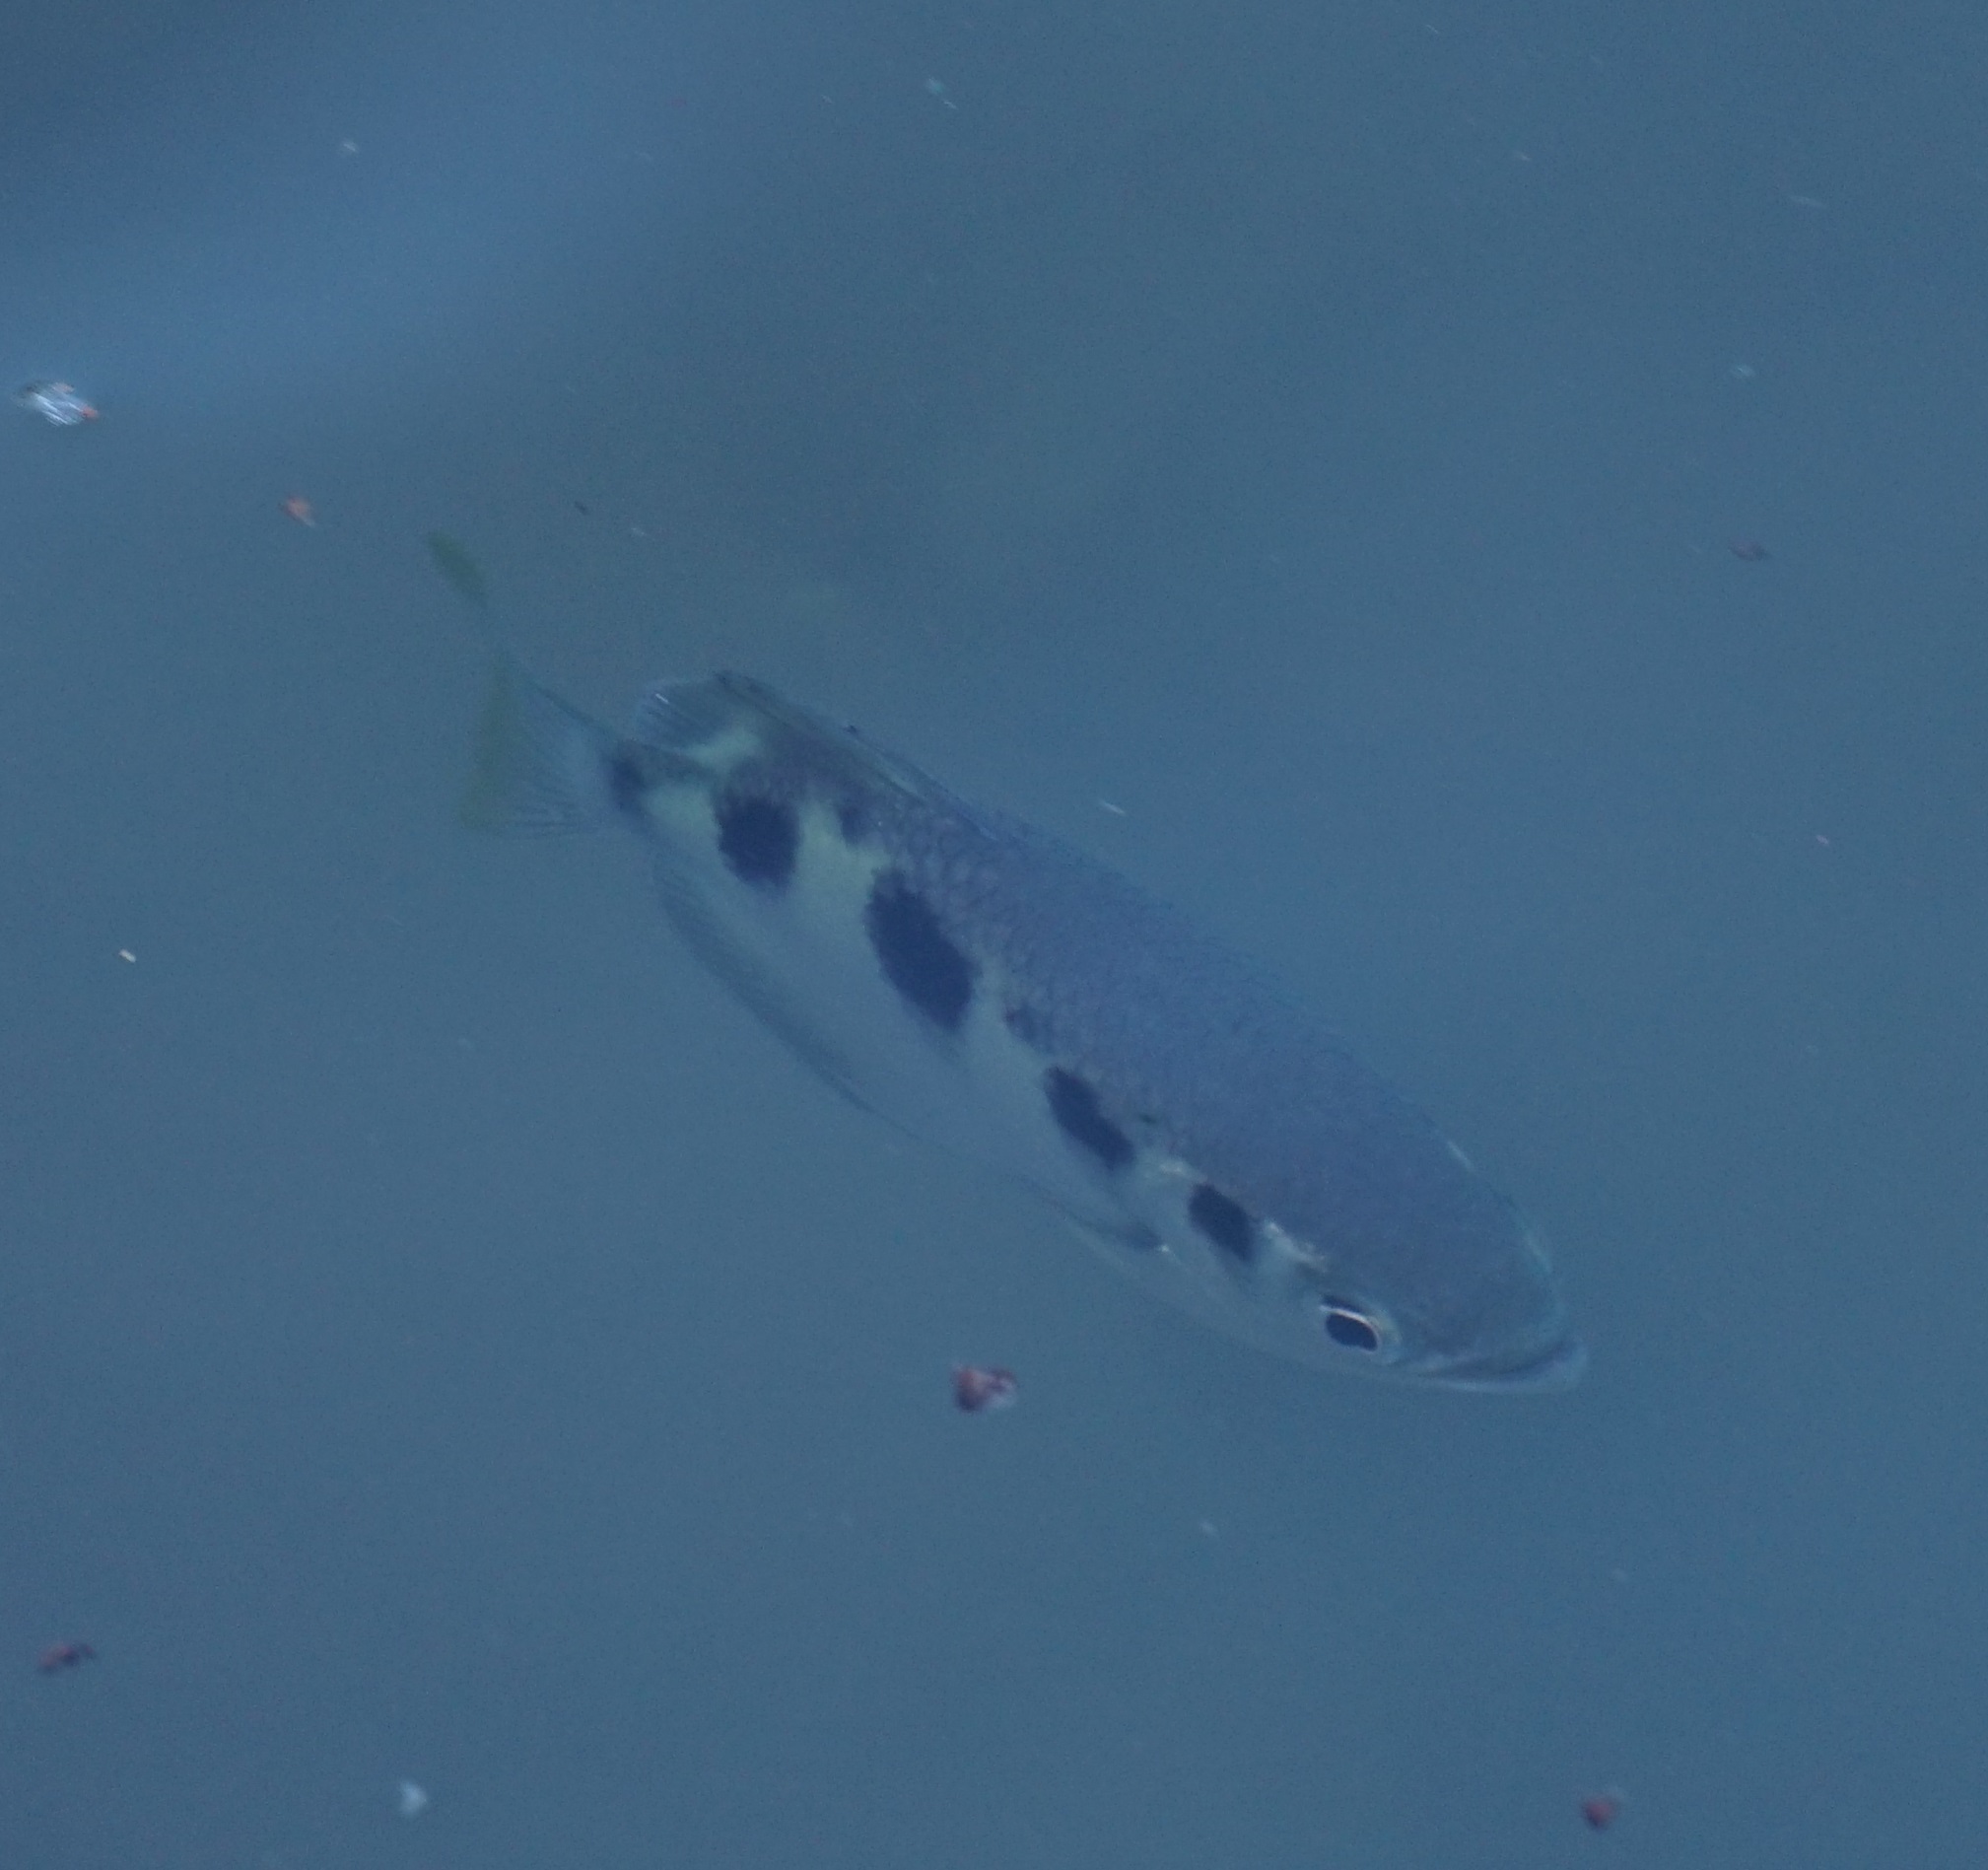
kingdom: Animalia
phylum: Chordata
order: Perciformes
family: Toxotidae
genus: Toxotes
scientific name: Toxotes chatareus
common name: Spotted archerfish
